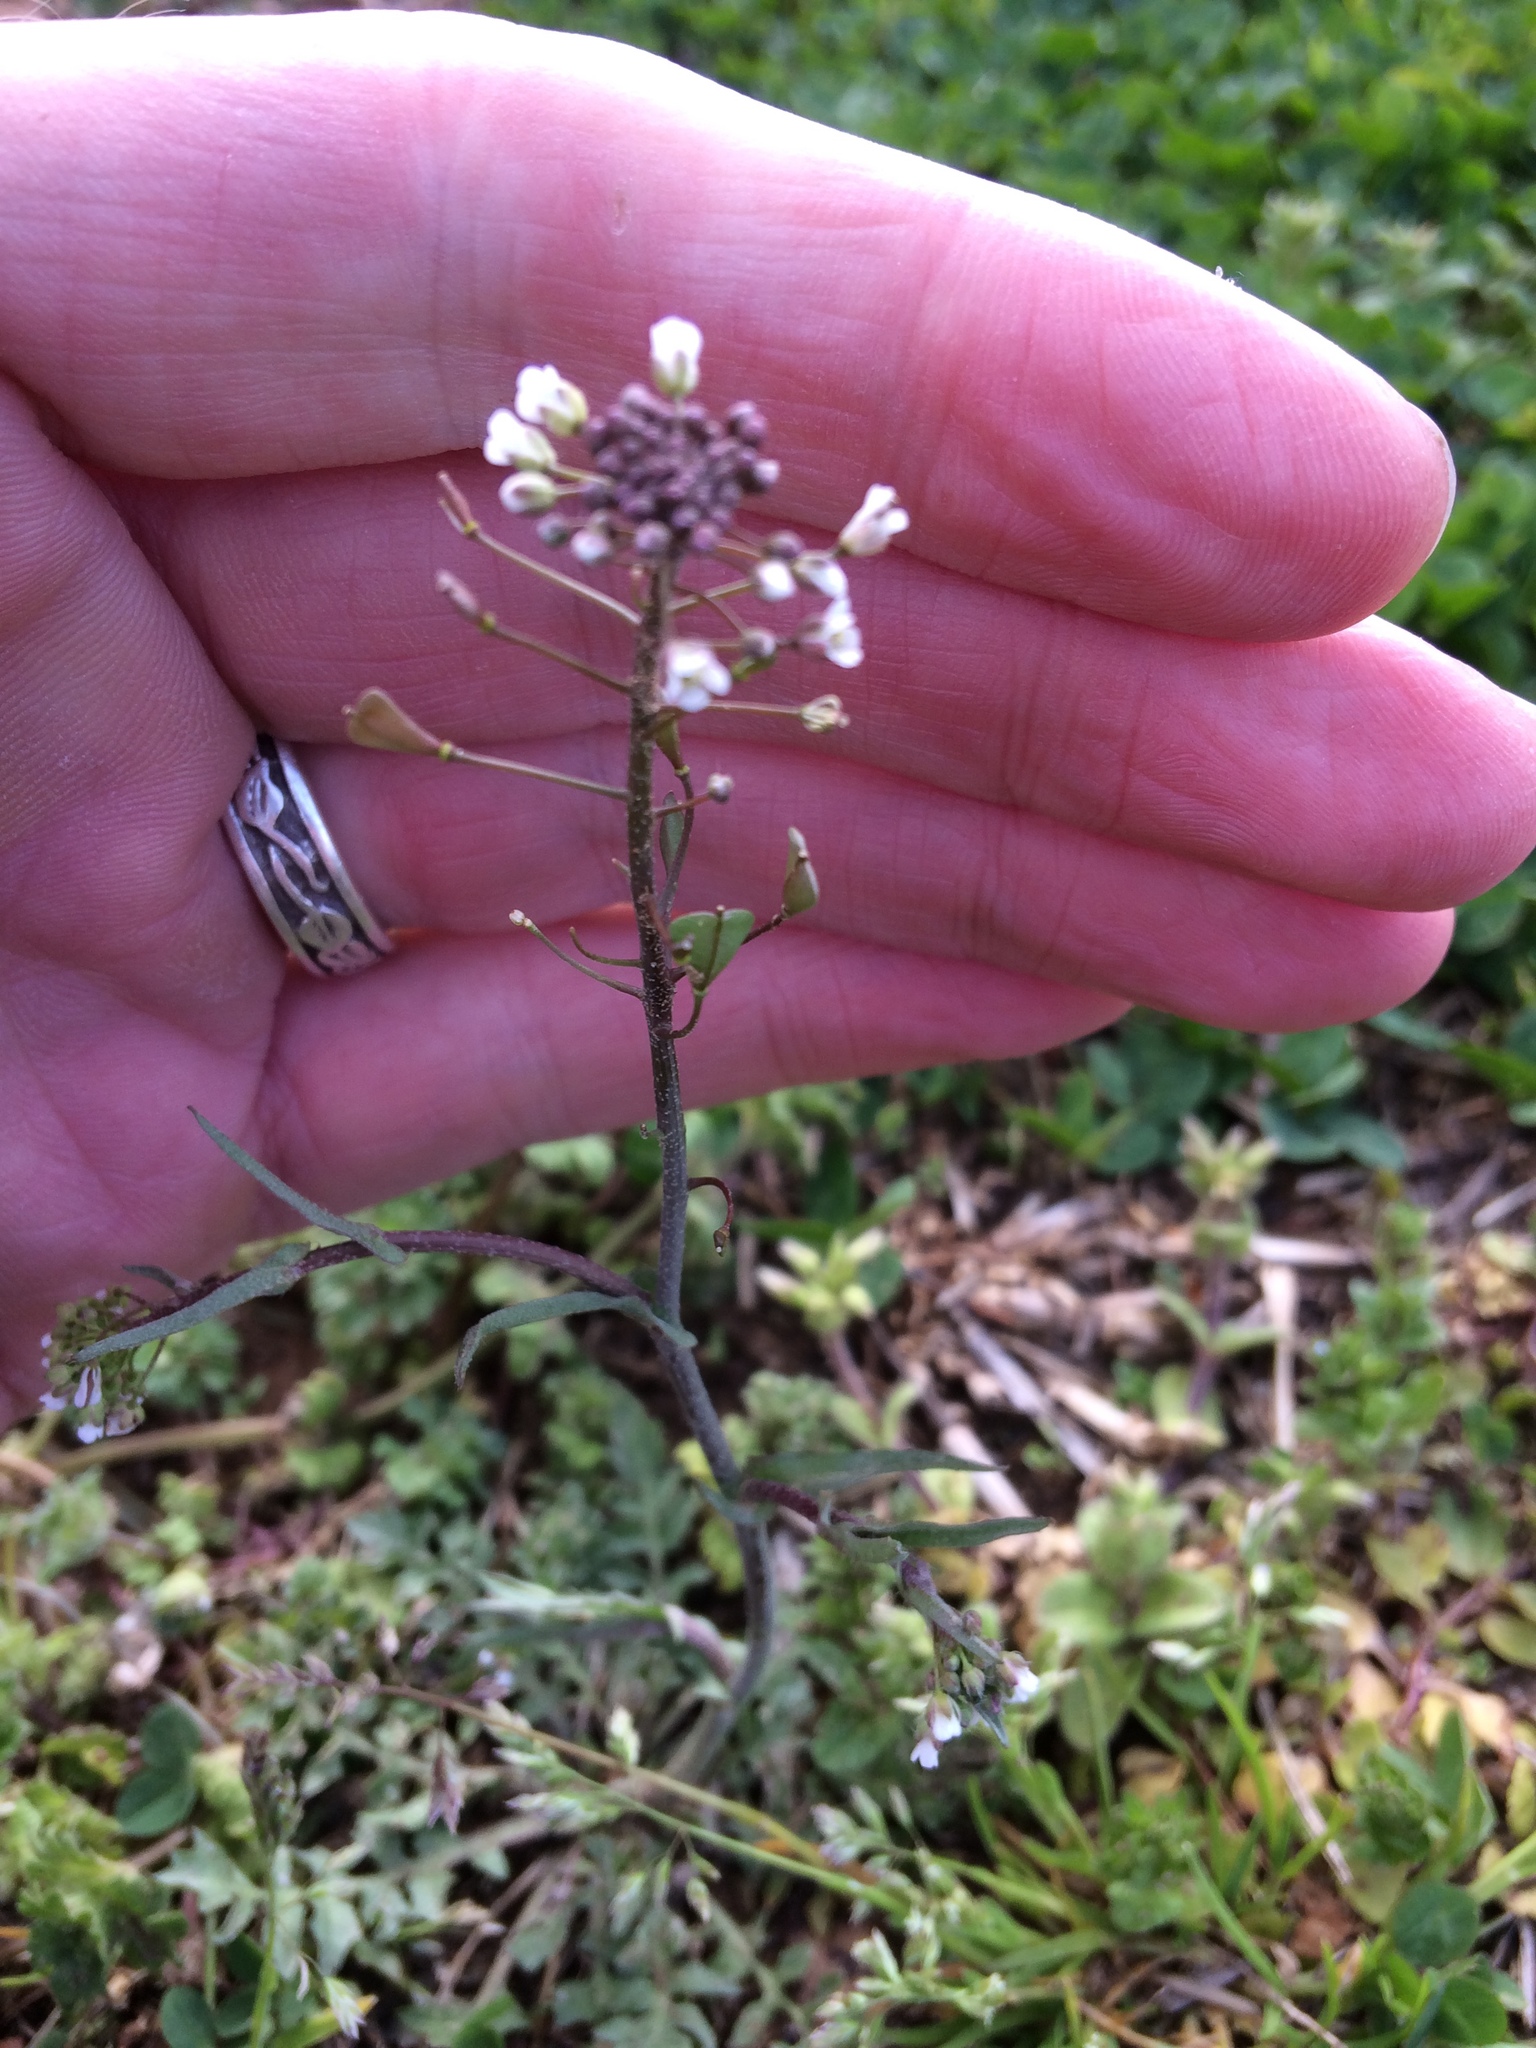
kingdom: Plantae
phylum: Tracheophyta
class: Magnoliopsida
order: Brassicales
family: Brassicaceae
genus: Capsella
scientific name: Capsella bursa-pastoris
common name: Shepherd's purse
